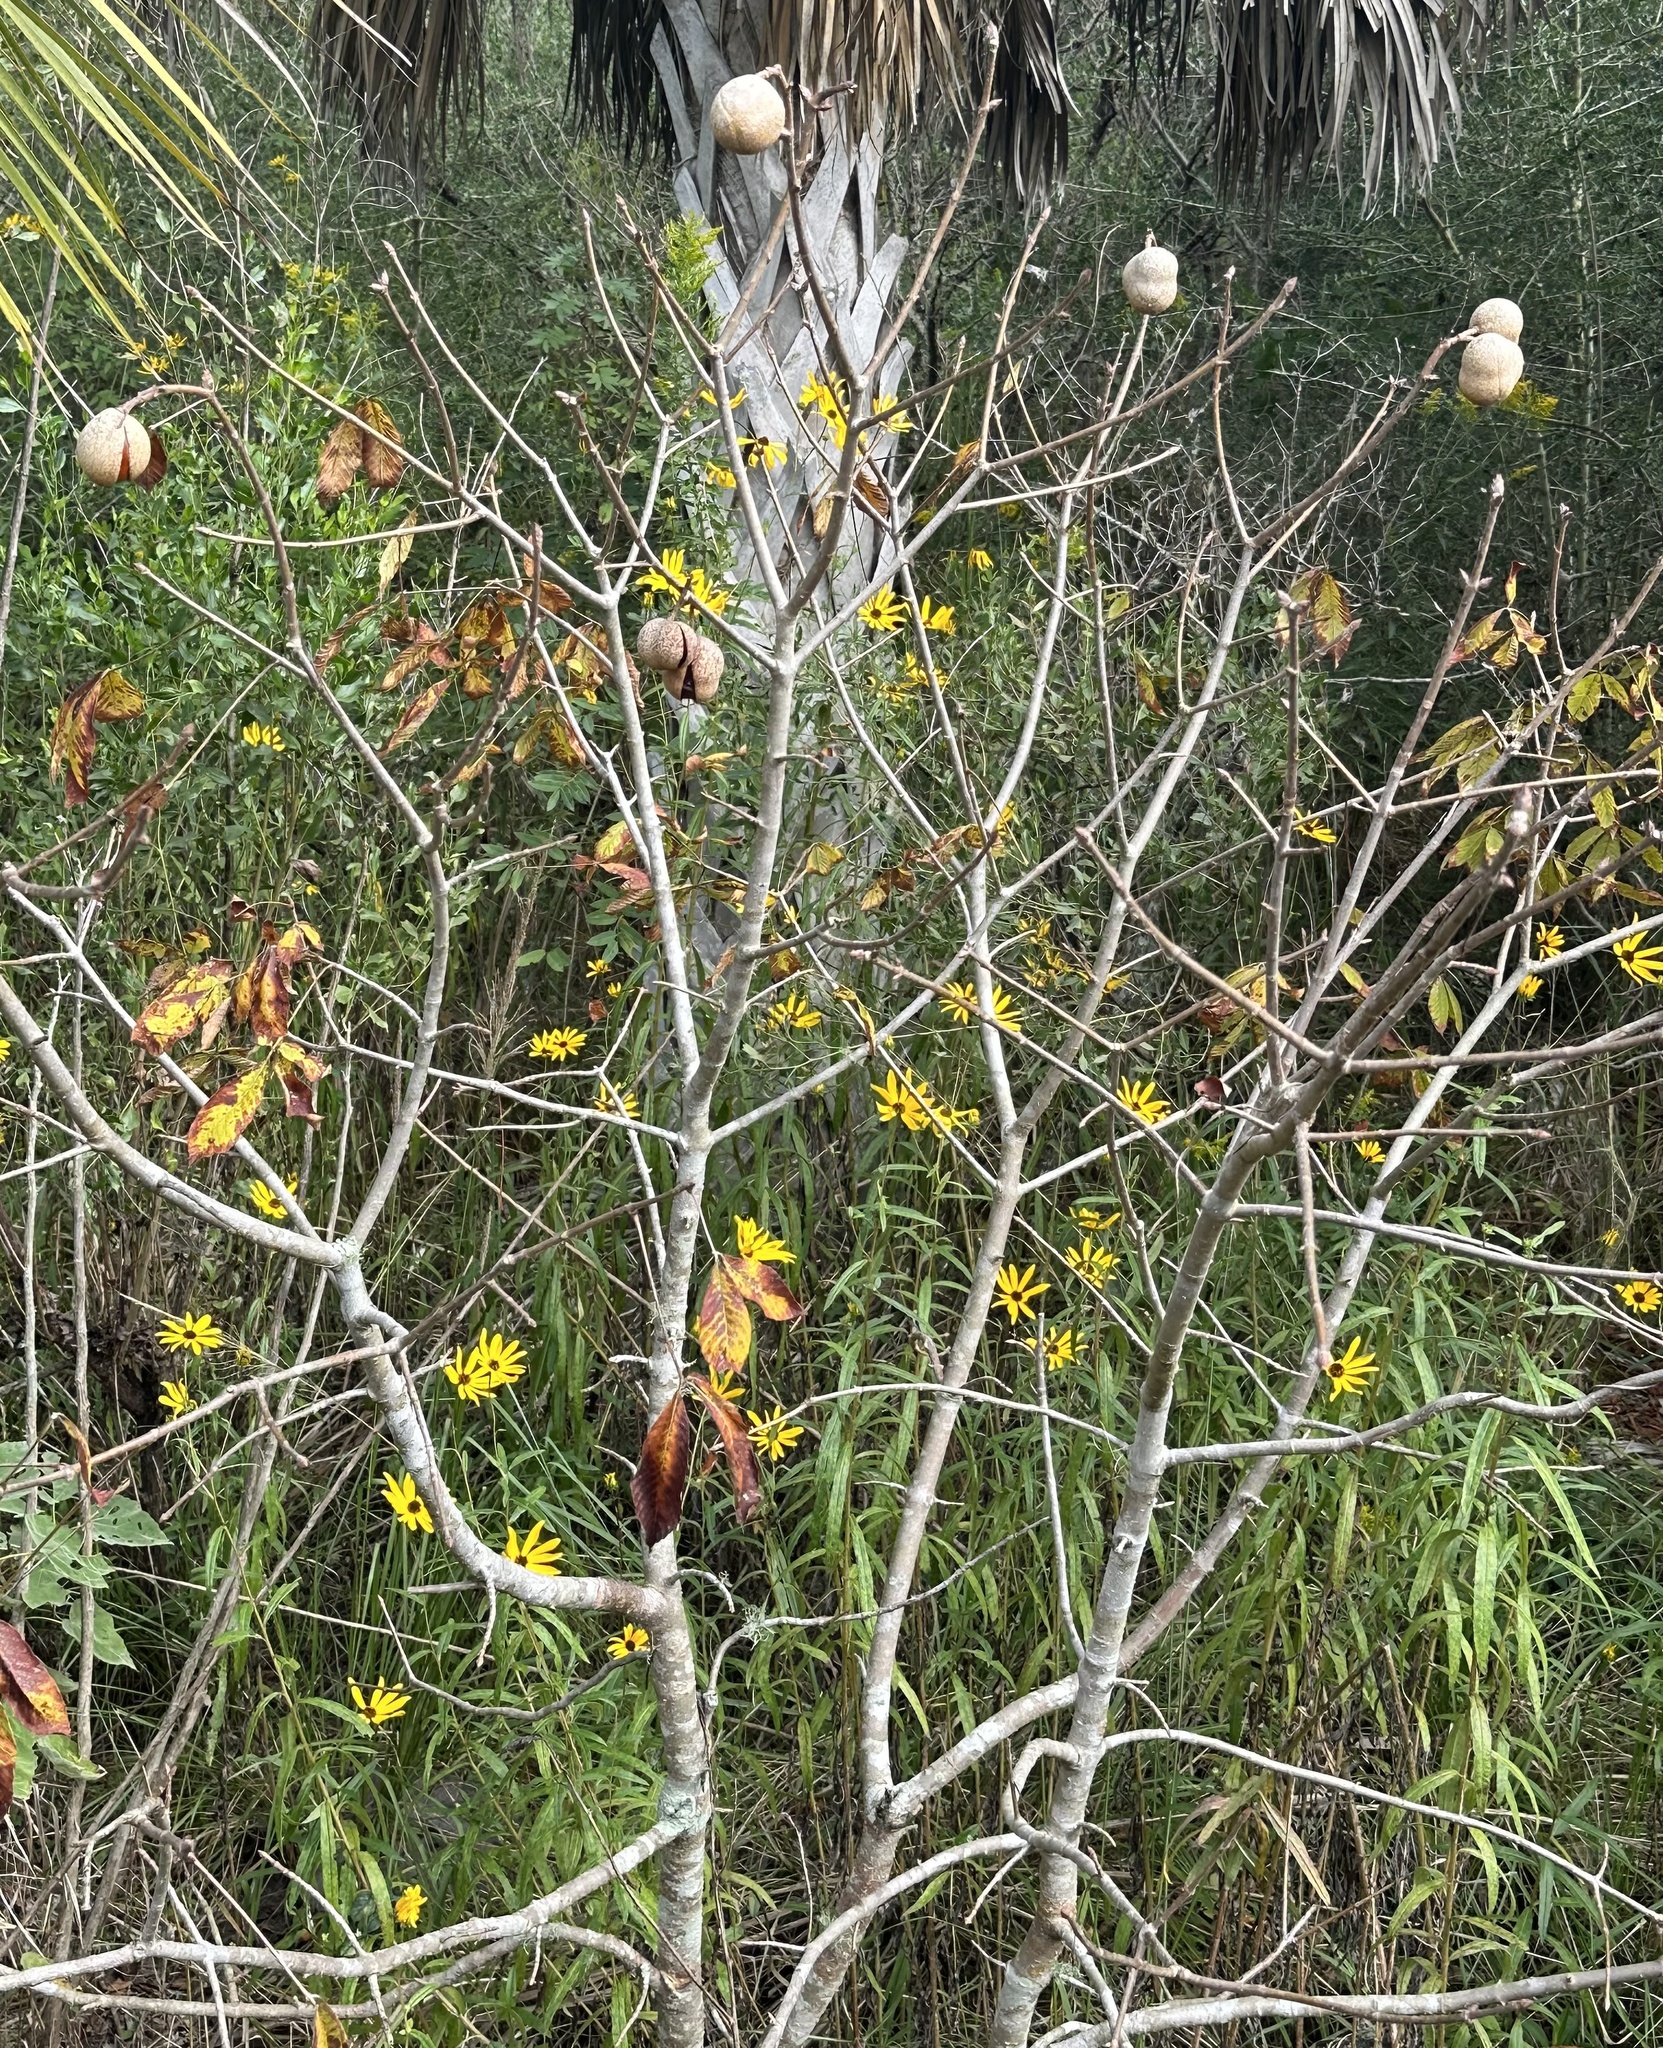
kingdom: Plantae
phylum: Tracheophyta
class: Magnoliopsida
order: Sapindales
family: Sapindaceae
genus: Aesculus
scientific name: Aesculus pavia
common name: Red buckeye
